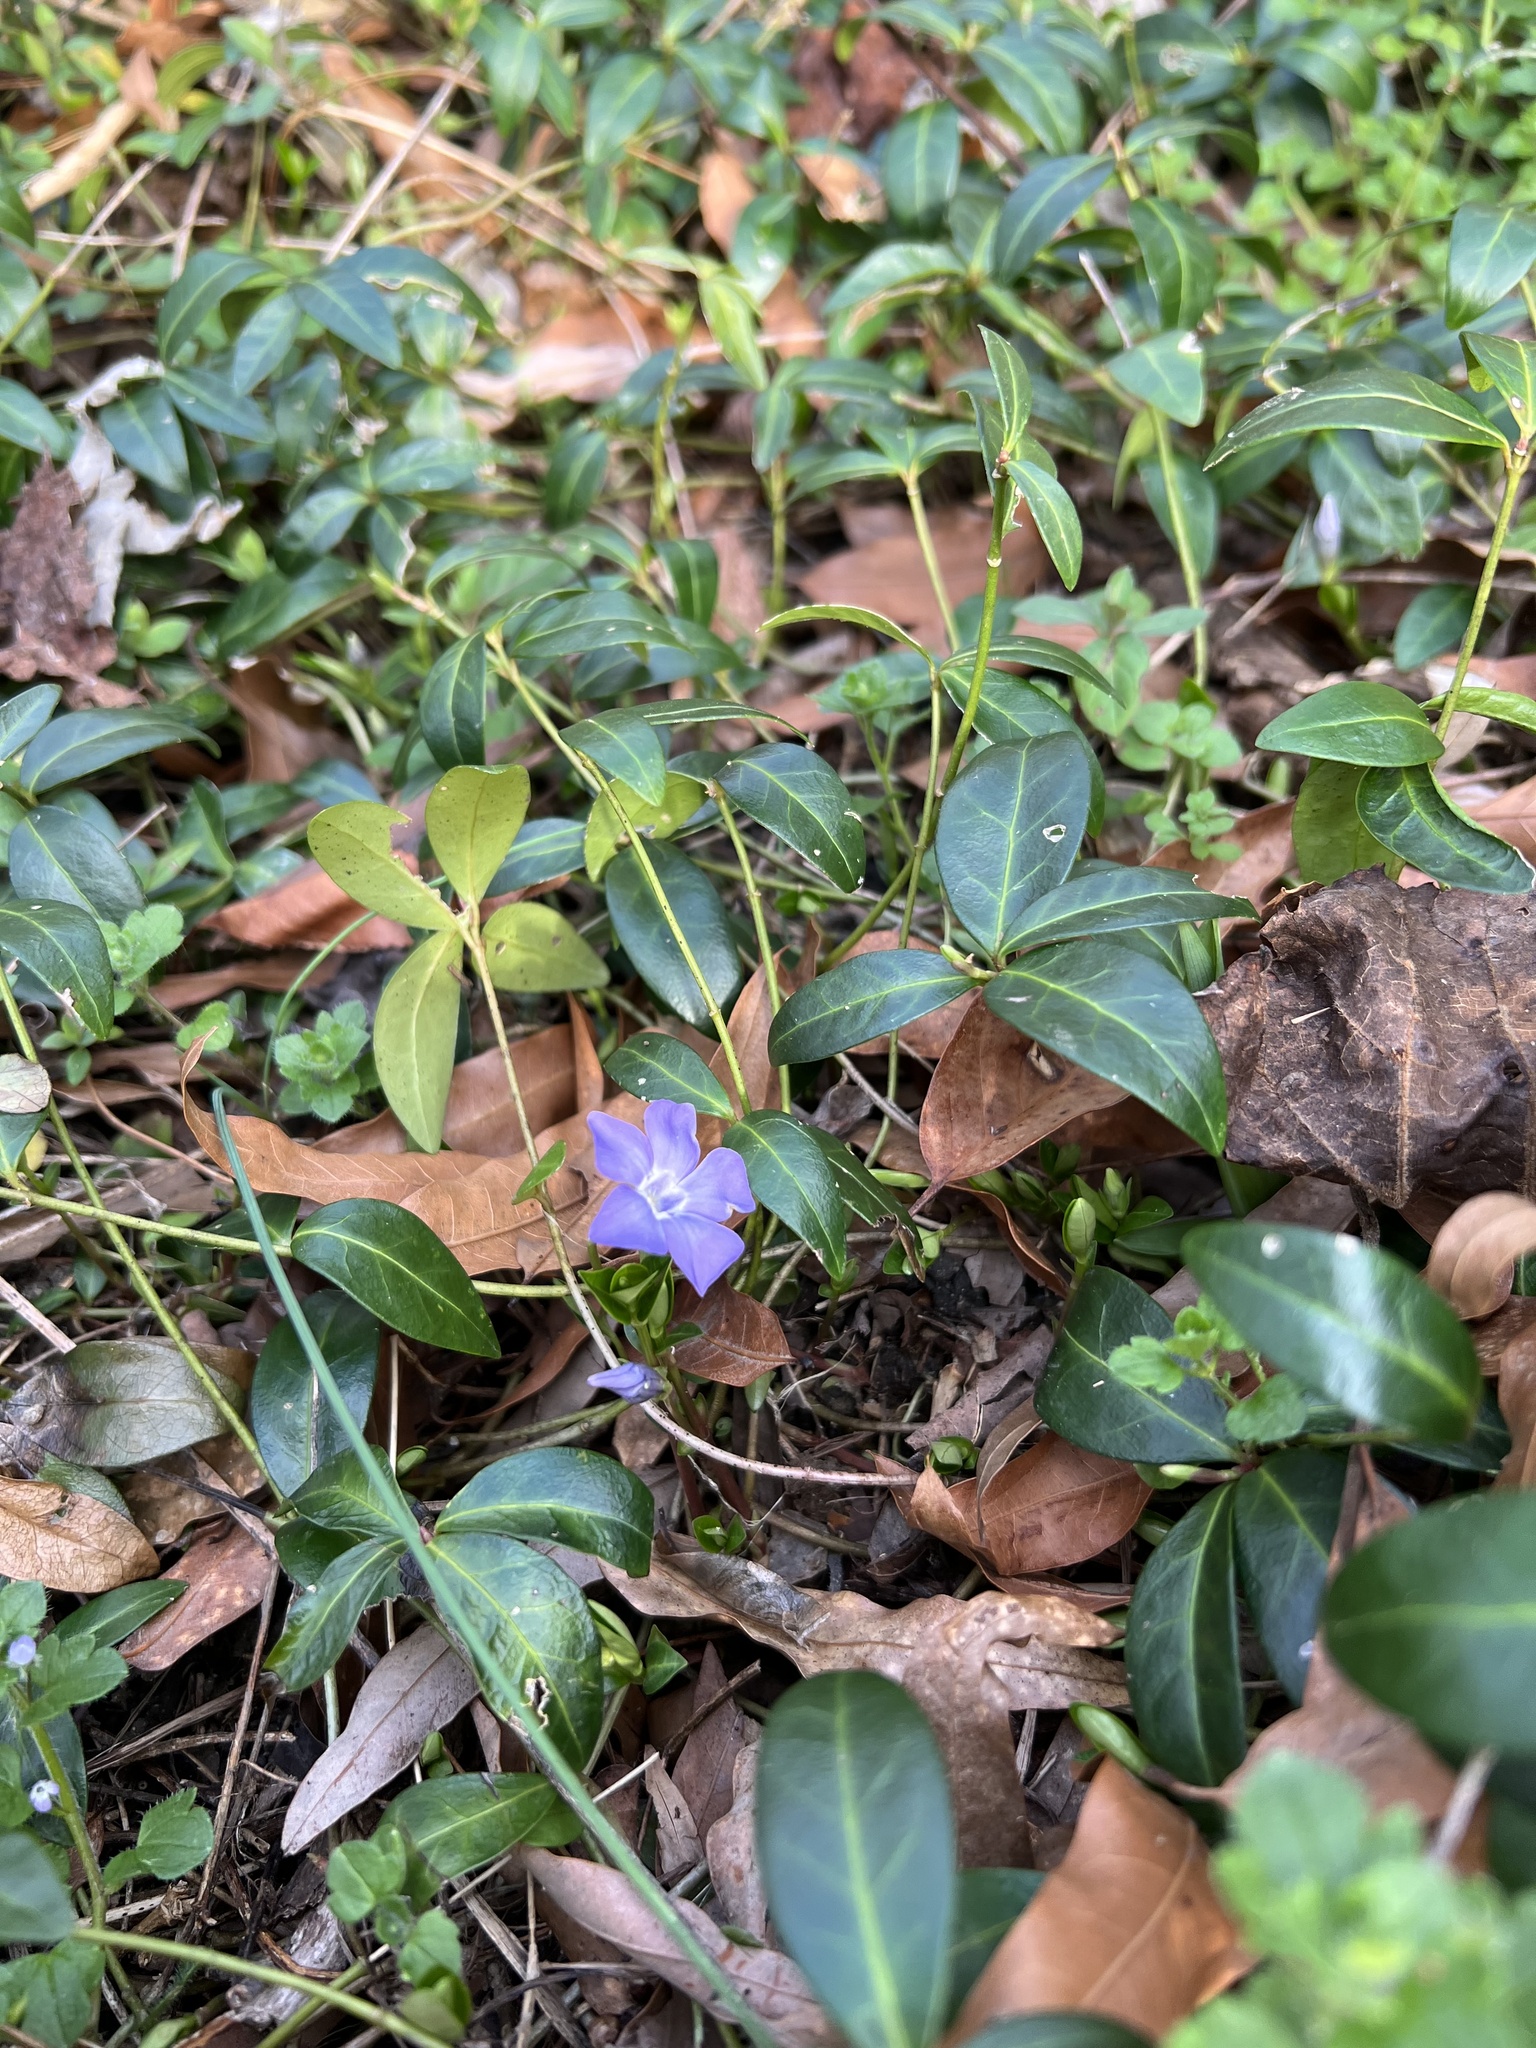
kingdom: Plantae
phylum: Tracheophyta
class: Magnoliopsida
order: Gentianales
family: Apocynaceae
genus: Vinca
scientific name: Vinca minor
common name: Lesser periwinkle
